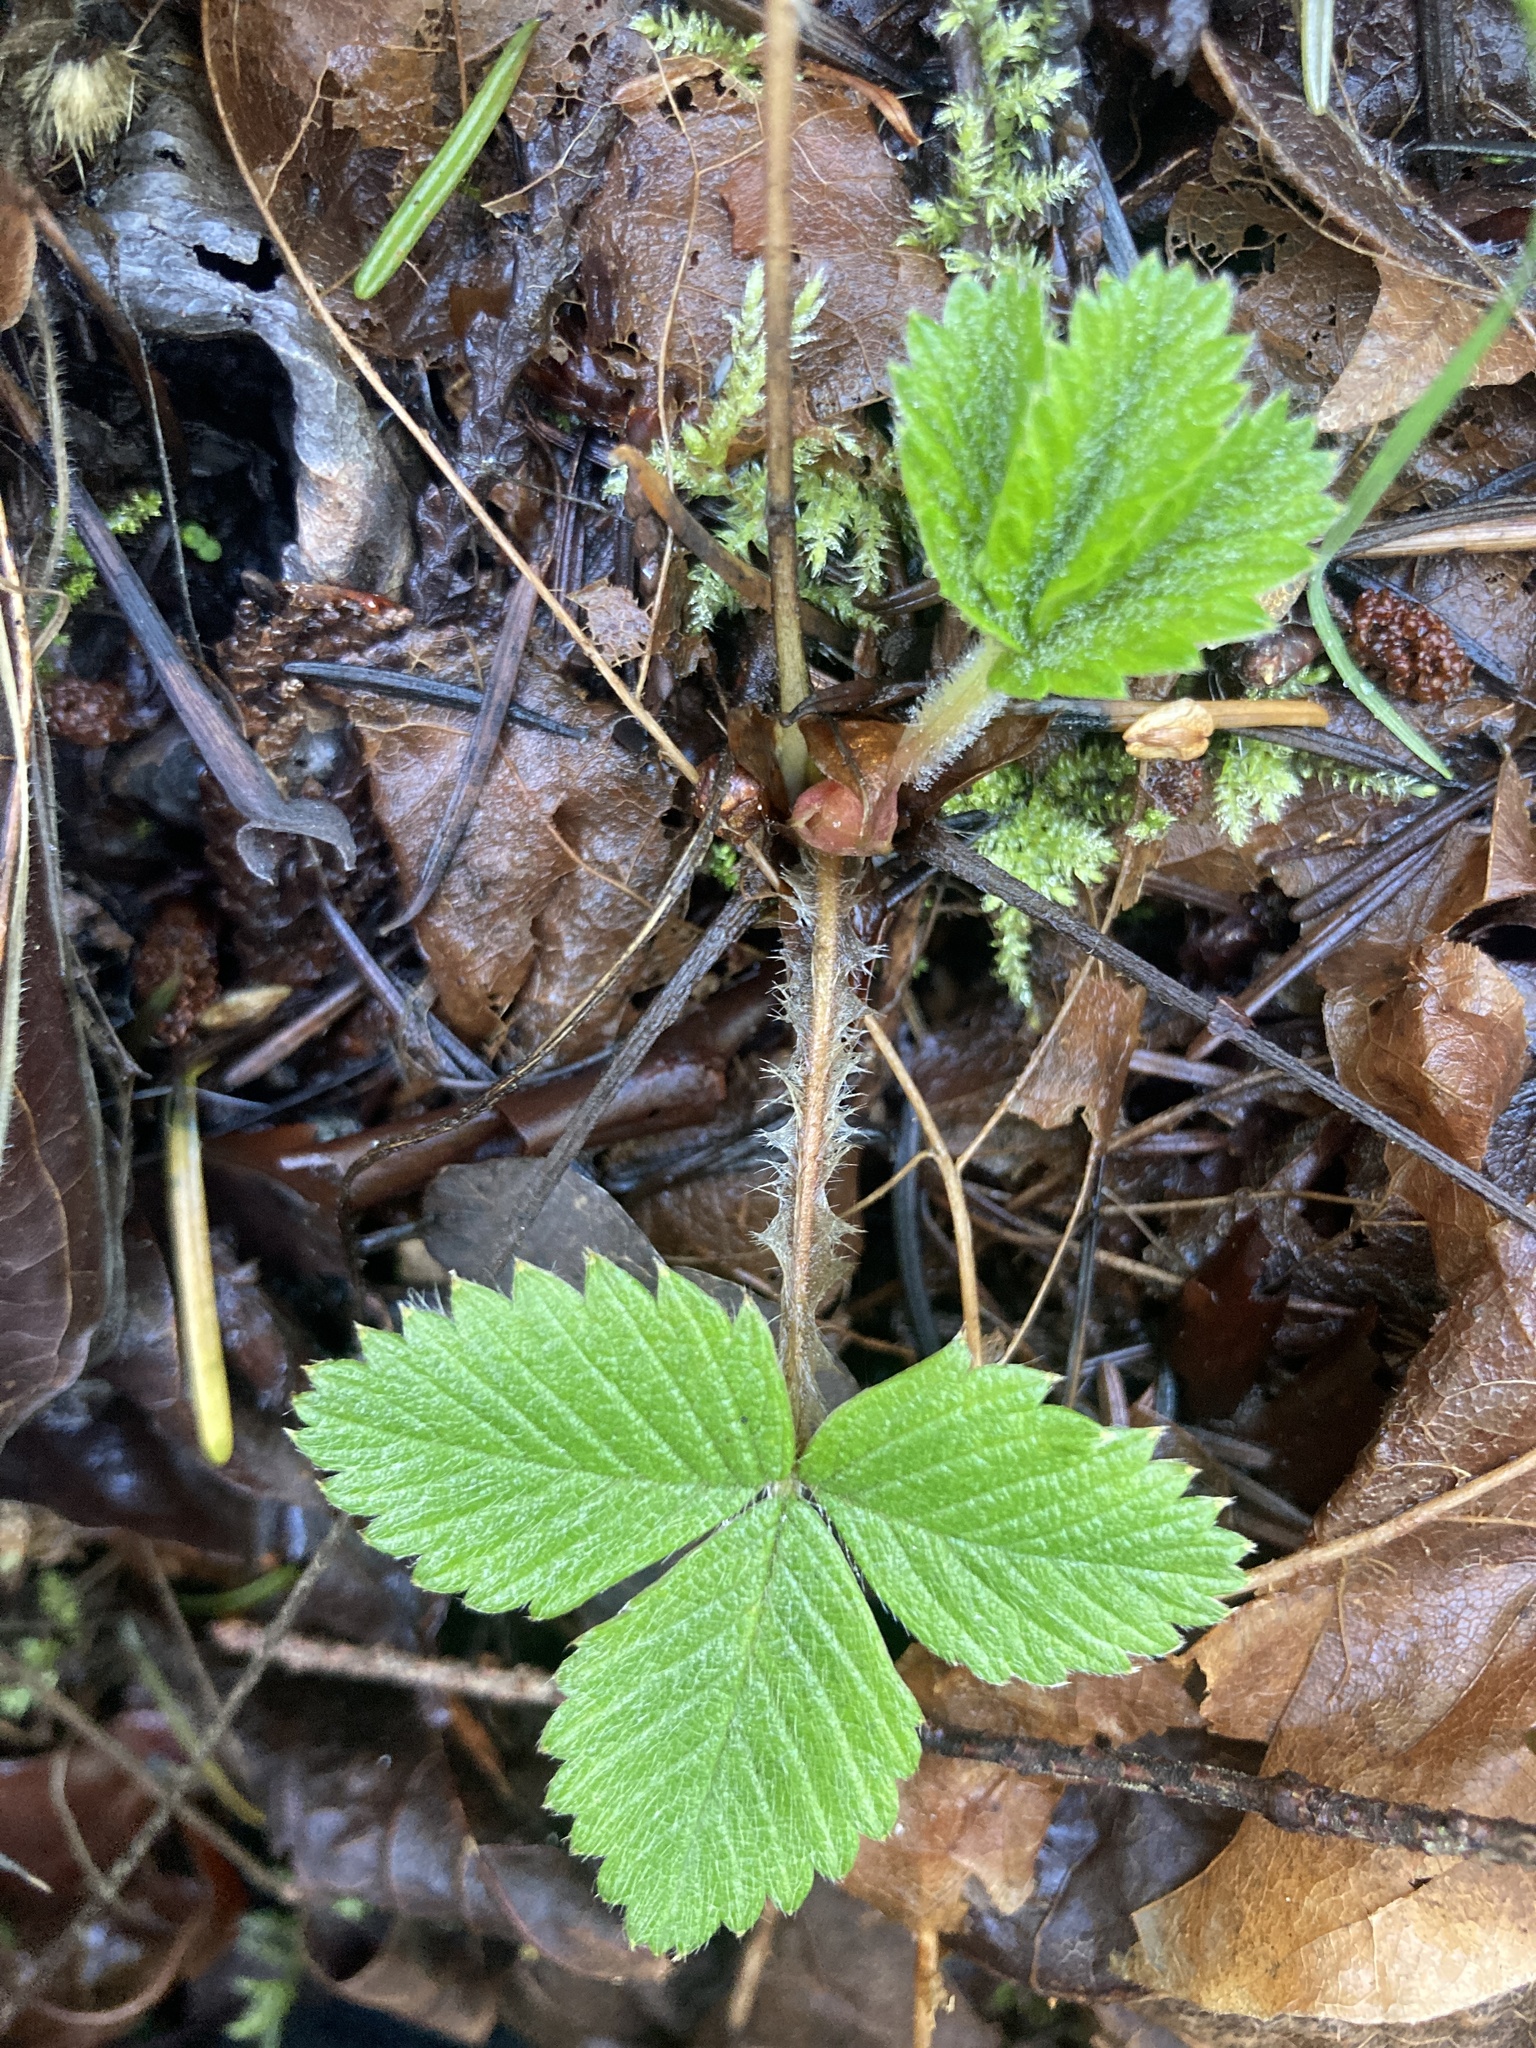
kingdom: Plantae
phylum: Tracheophyta
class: Magnoliopsida
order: Rosales
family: Rosaceae
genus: Fragaria
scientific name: Fragaria vesca
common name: Wild strawberry
